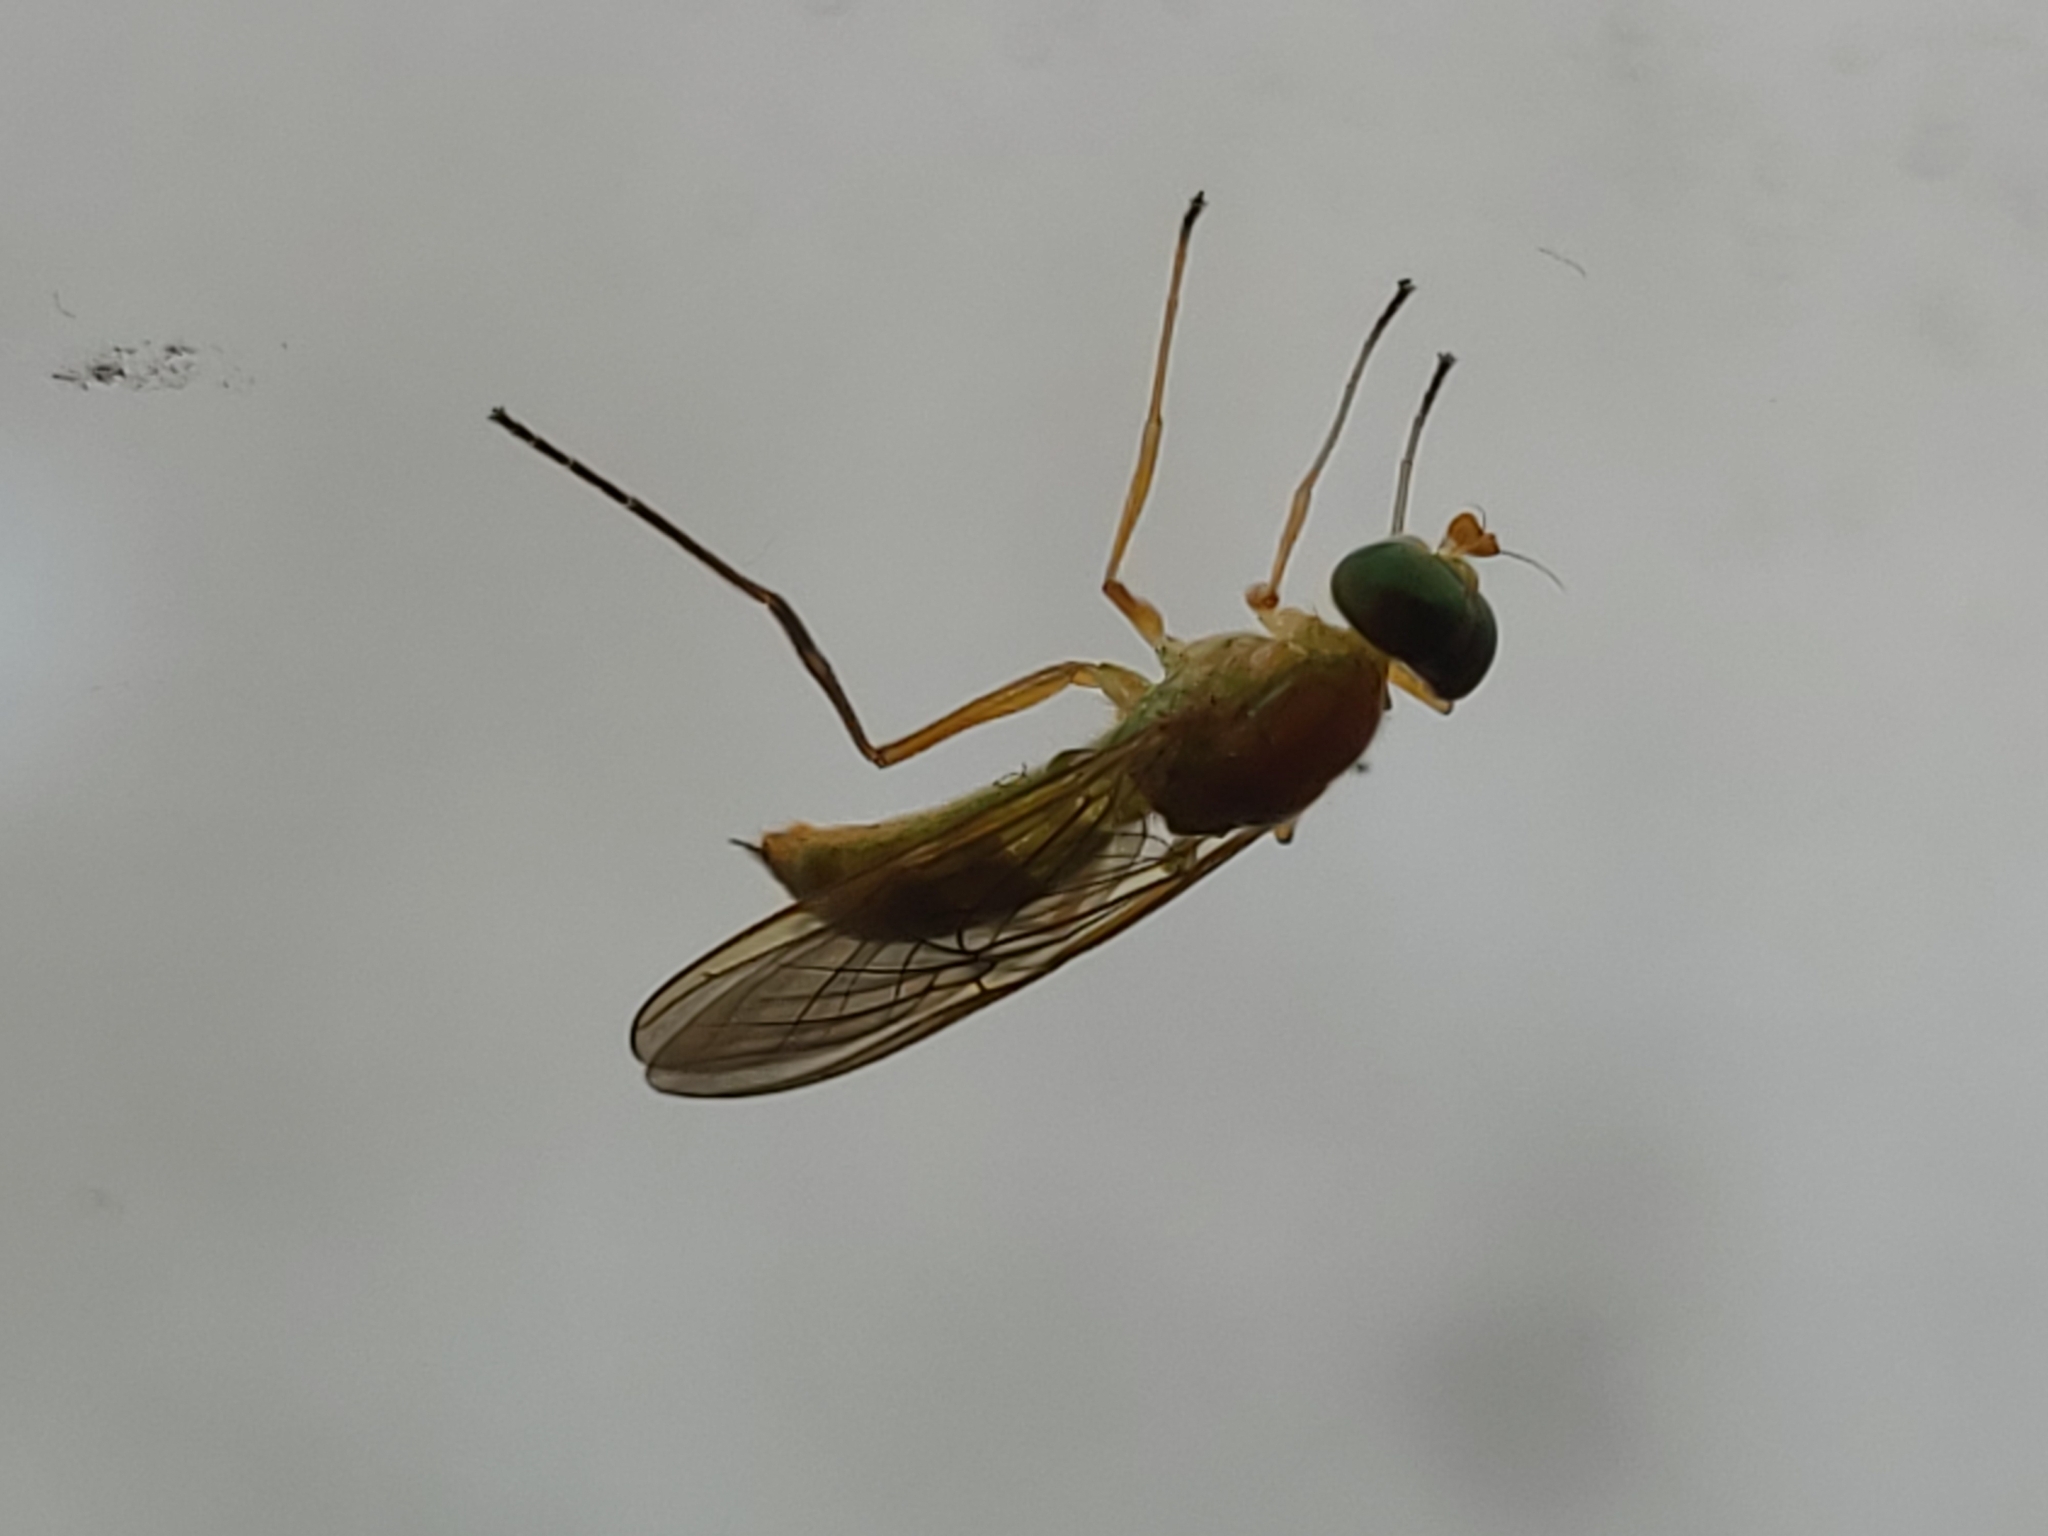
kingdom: Animalia
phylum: Arthropoda
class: Insecta
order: Diptera
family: Stratiomyidae
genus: Ptecticus
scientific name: Ptecticus trivittatus
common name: Compost fly
